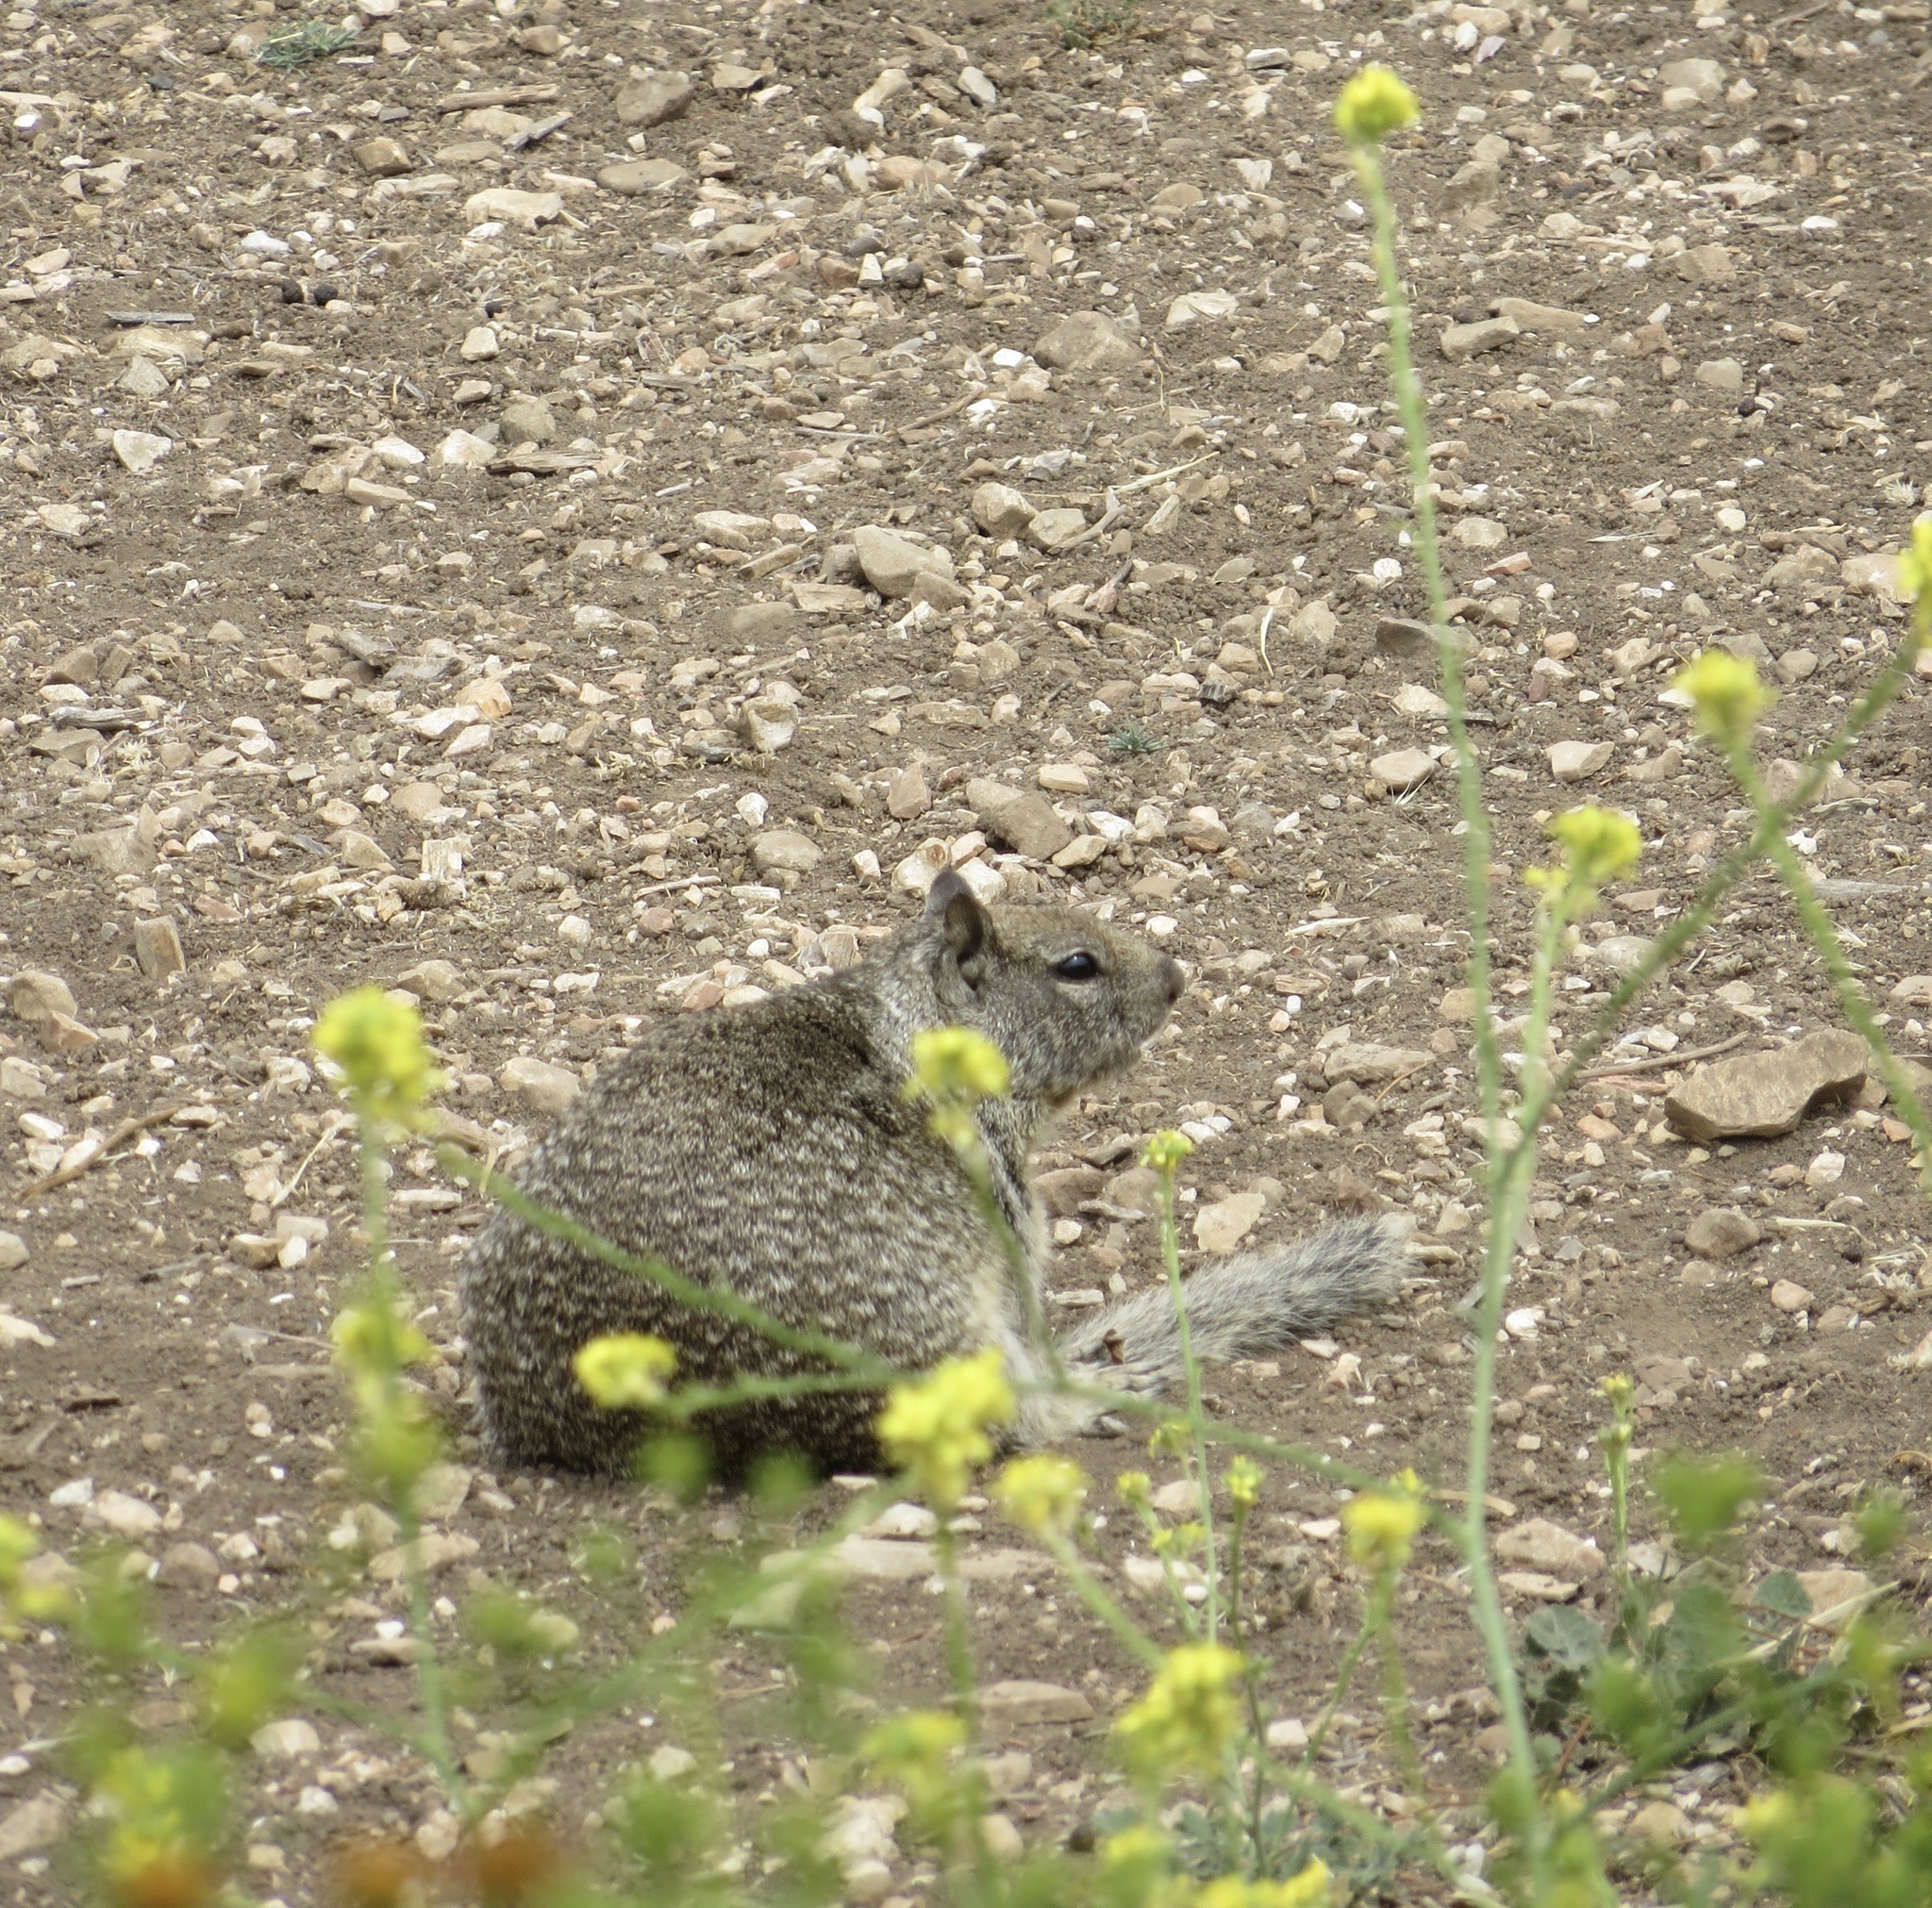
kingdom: Animalia
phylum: Chordata
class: Mammalia
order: Rodentia
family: Sciuridae
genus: Otospermophilus
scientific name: Otospermophilus beecheyi
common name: California ground squirrel
